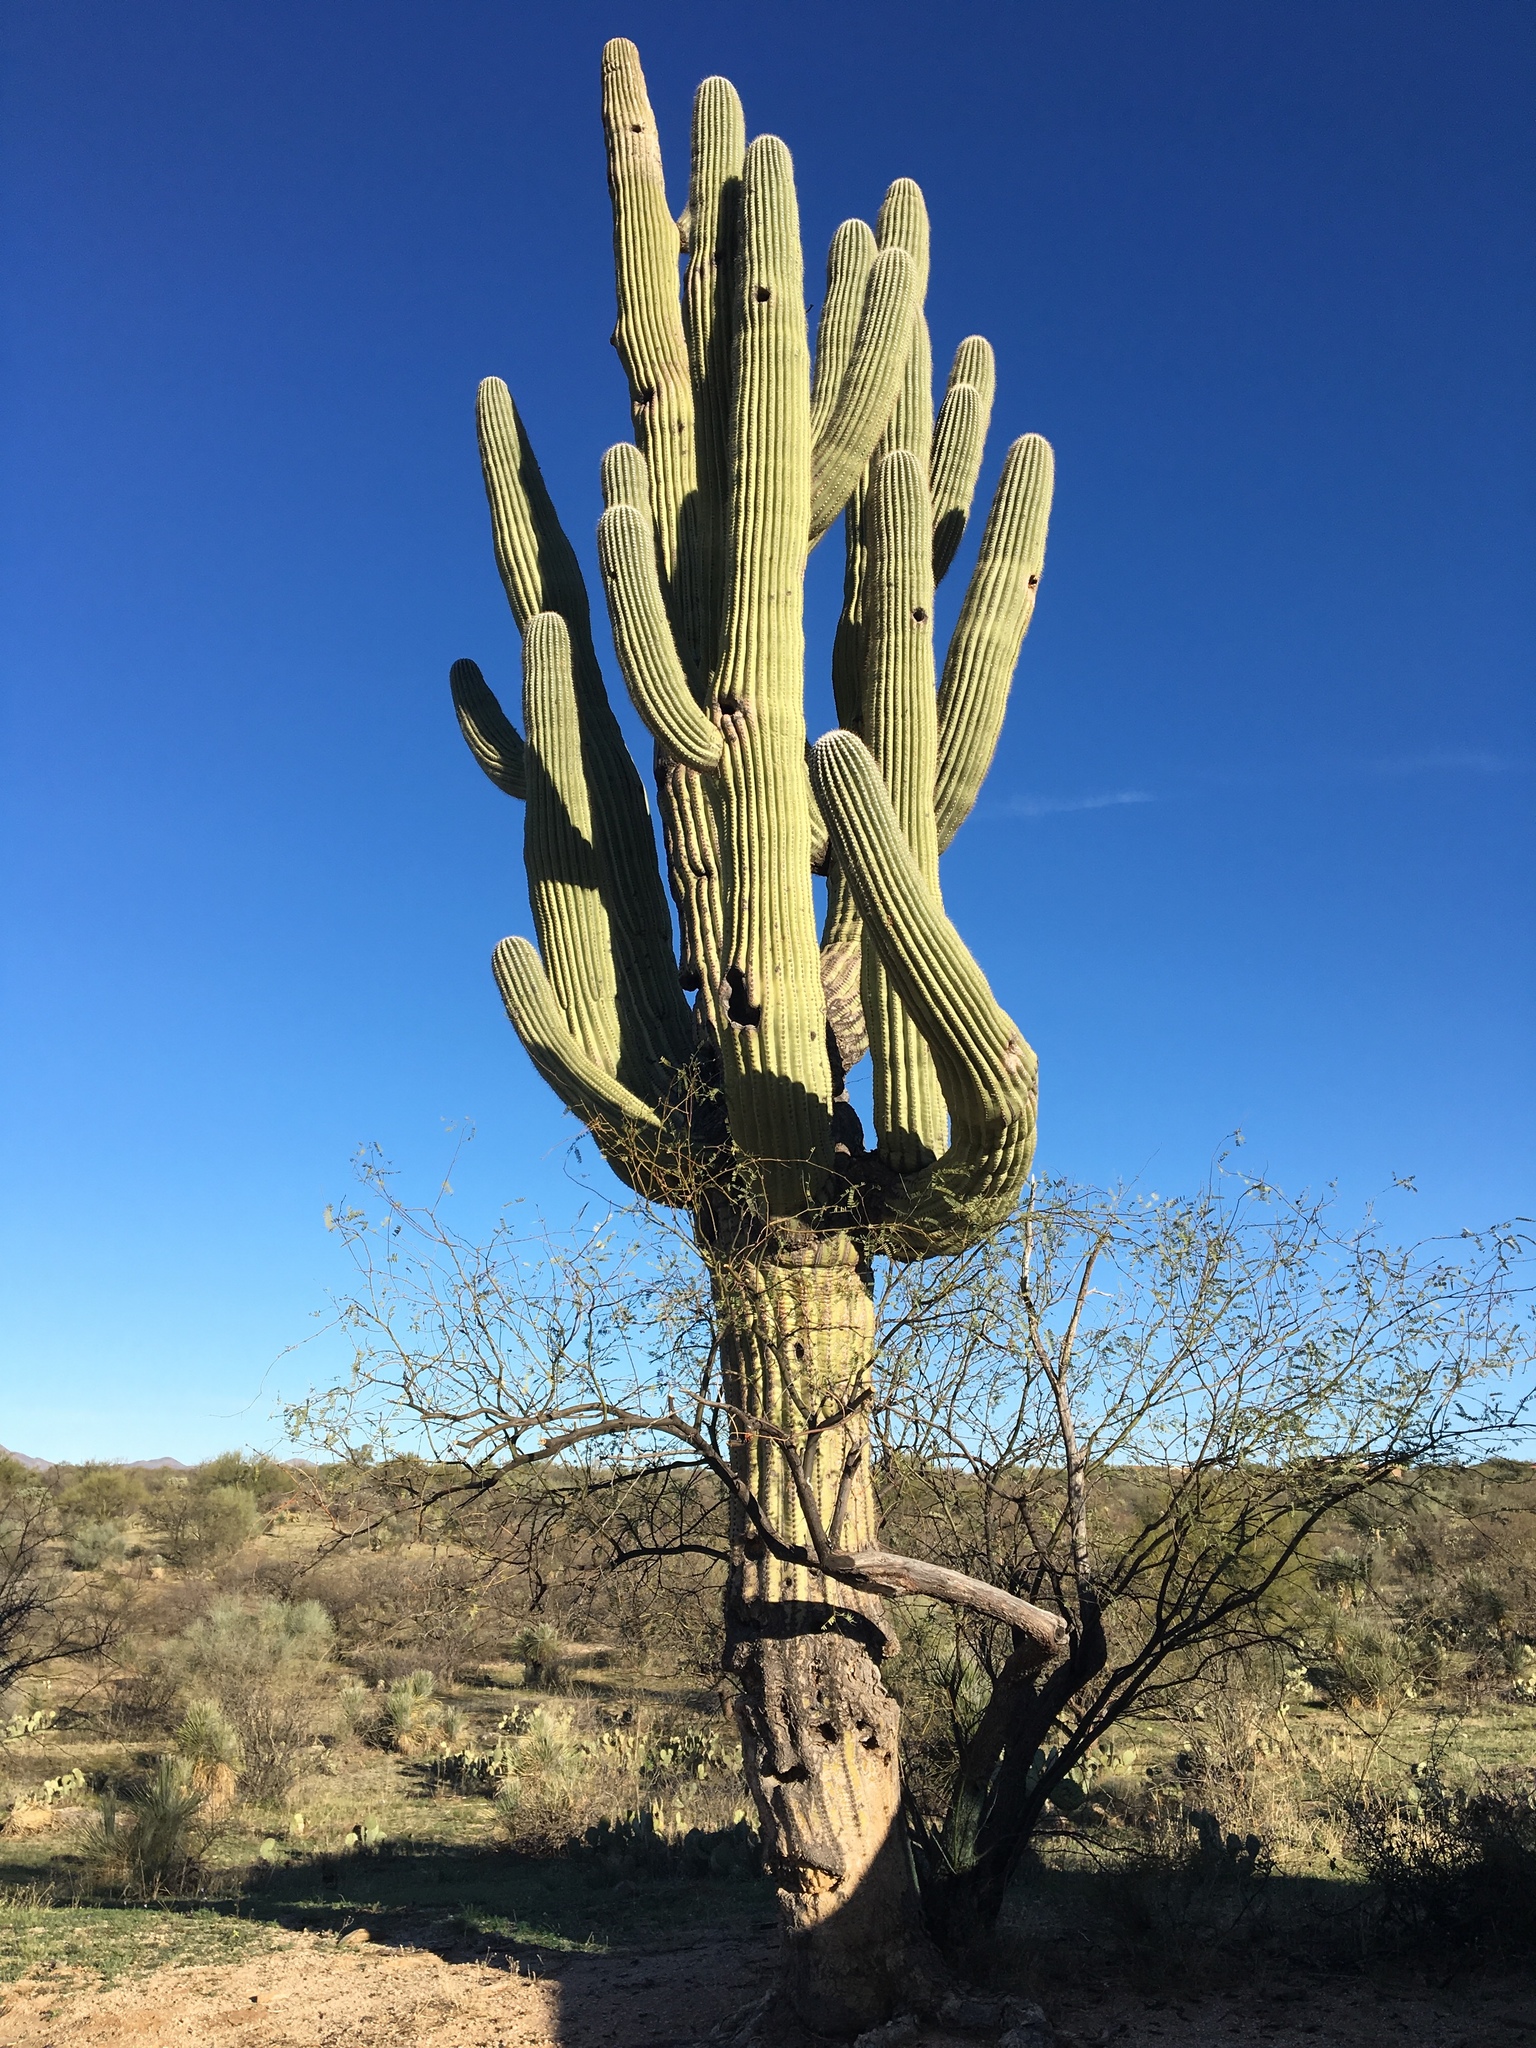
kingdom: Plantae
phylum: Tracheophyta
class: Magnoliopsida
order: Caryophyllales
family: Cactaceae
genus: Carnegiea
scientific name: Carnegiea gigantea
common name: Saguaro
